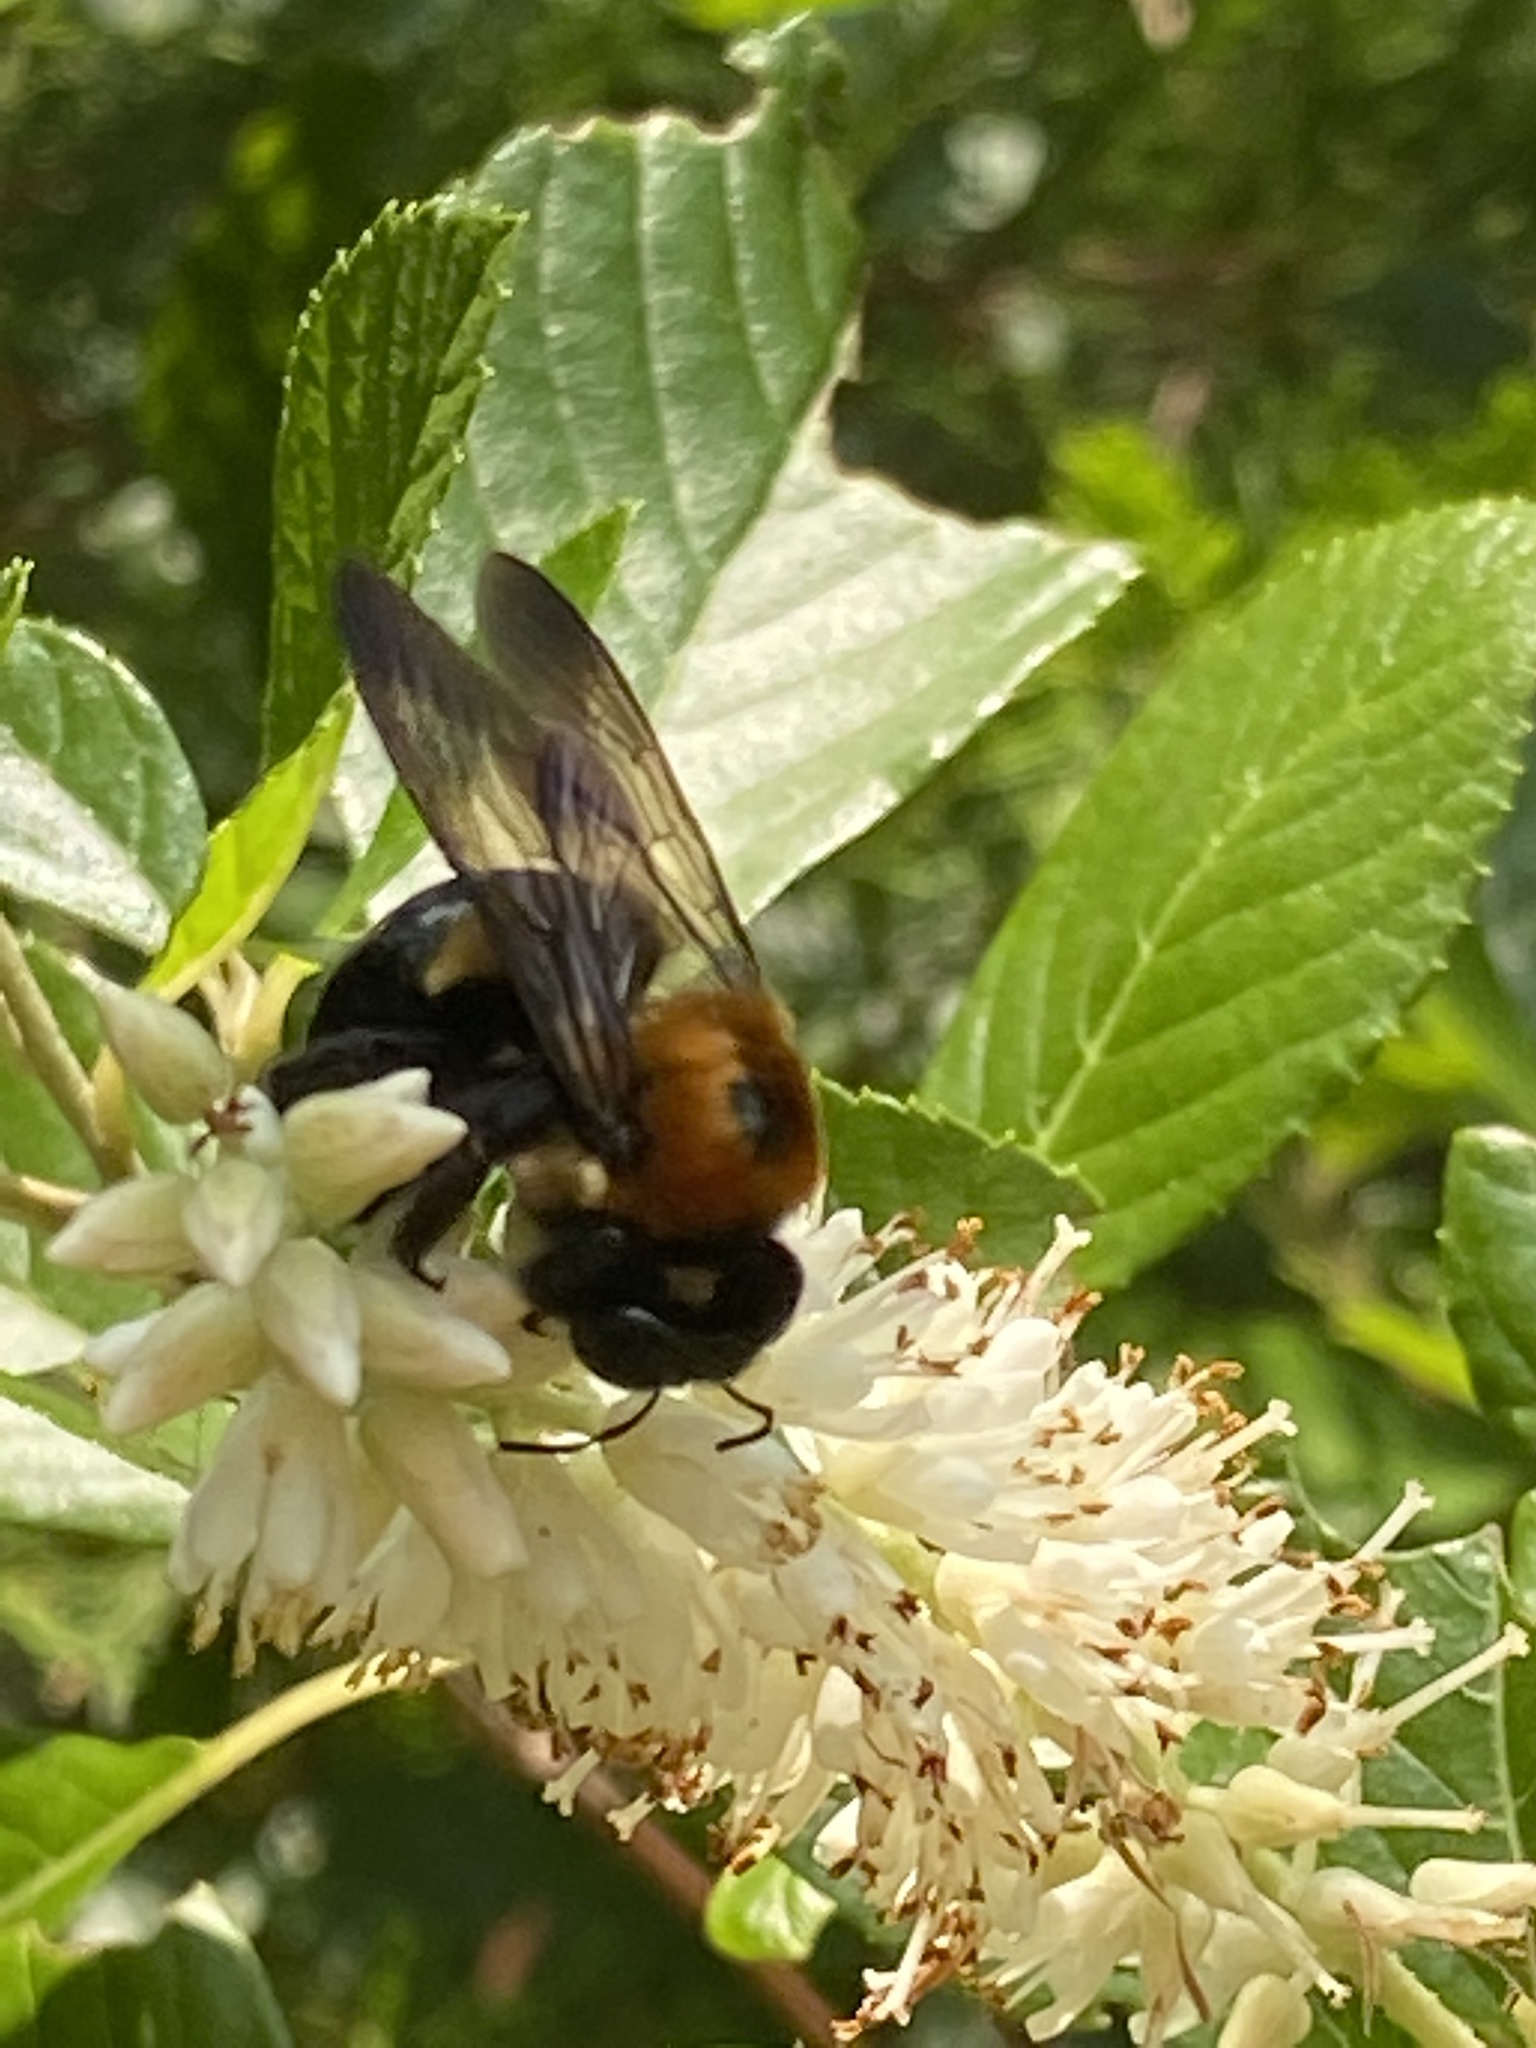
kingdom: Animalia
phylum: Arthropoda
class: Insecta
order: Hymenoptera
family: Apidae
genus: Xylocopa
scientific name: Xylocopa virginica
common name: Carpenter bee
